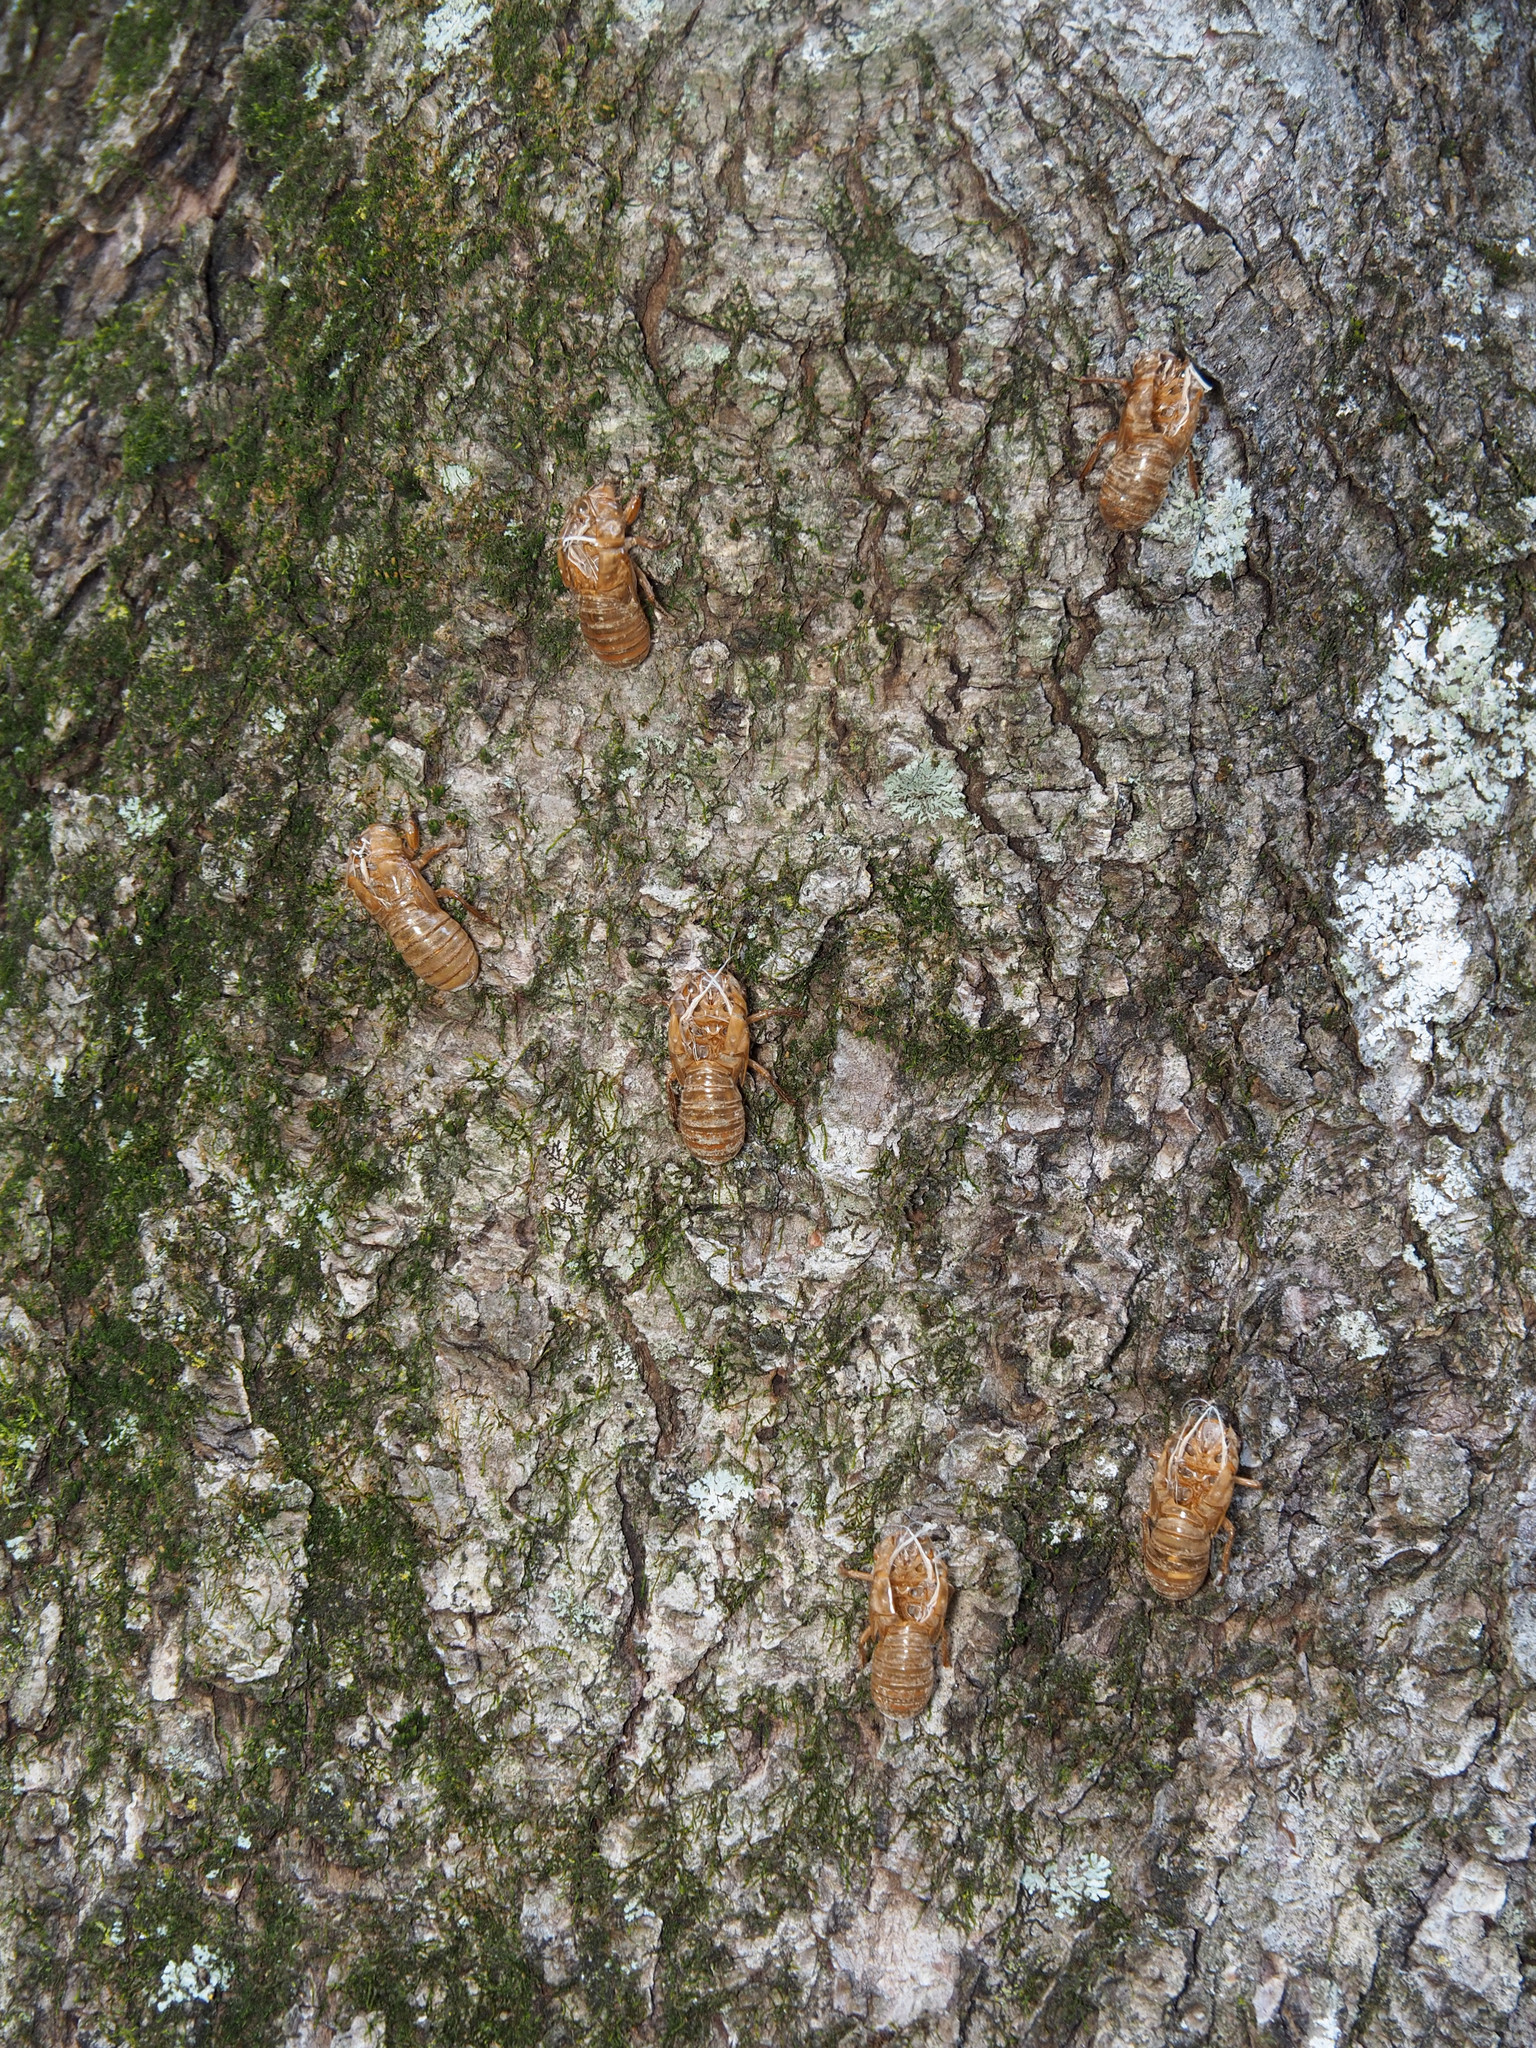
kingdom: Animalia
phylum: Arthropoda
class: Insecta
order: Hemiptera
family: Cicadidae
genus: Magicicada
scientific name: Magicicada
